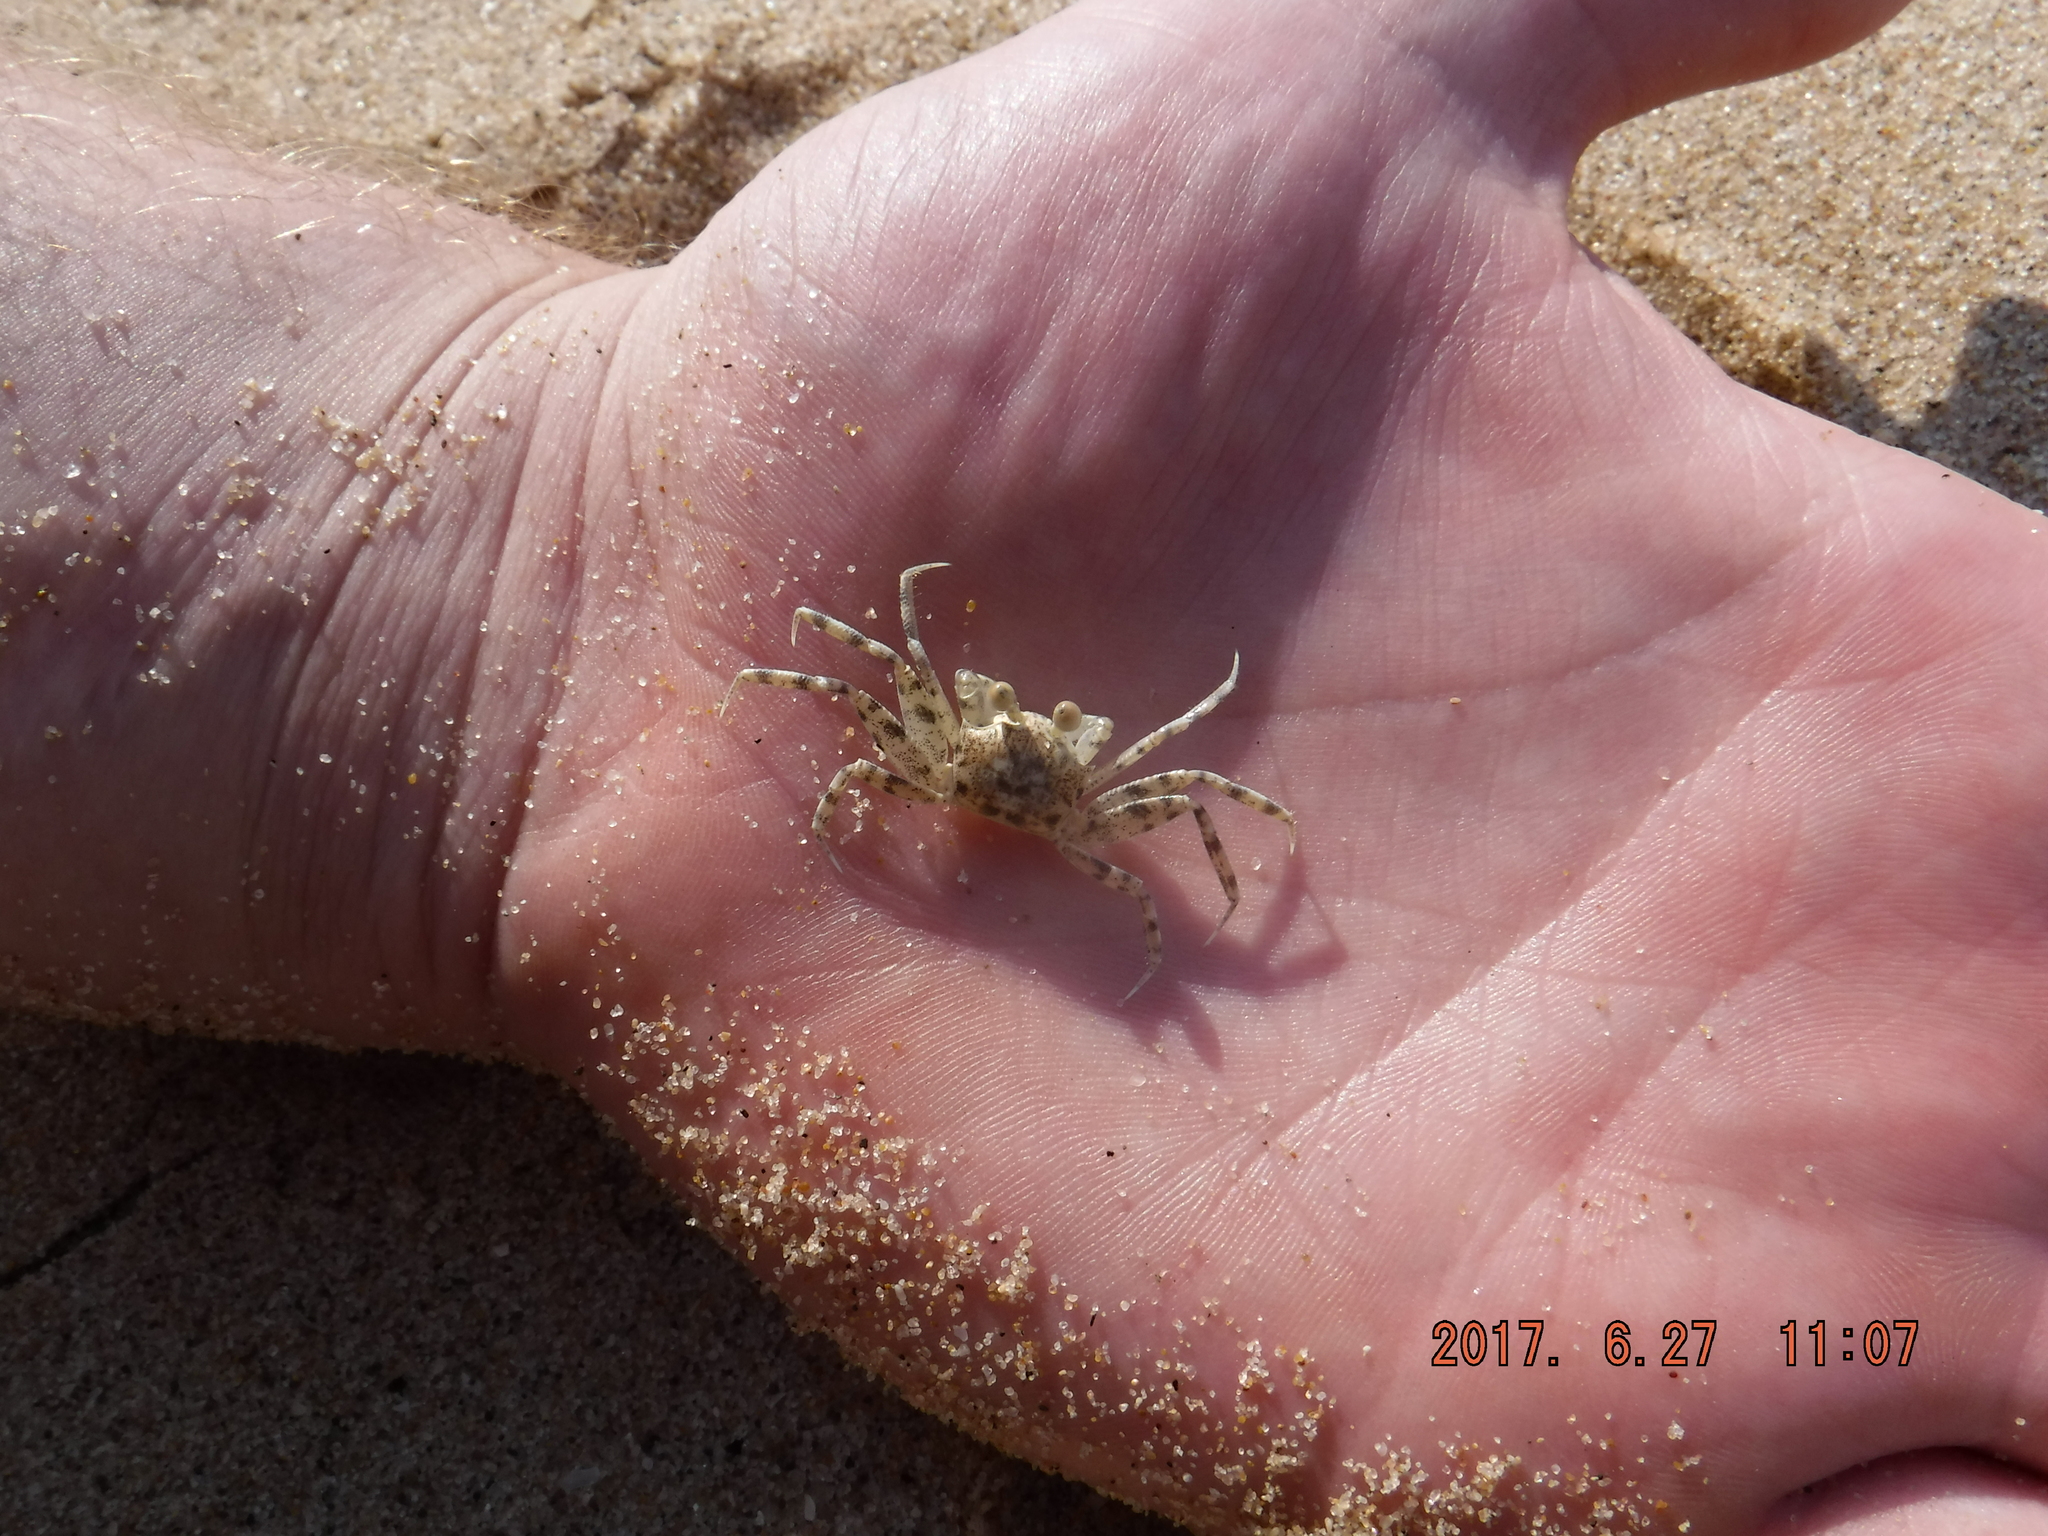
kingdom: Animalia
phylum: Arthropoda
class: Malacostraca
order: Decapoda
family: Ocypodidae
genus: Ocypode
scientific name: Ocypode
